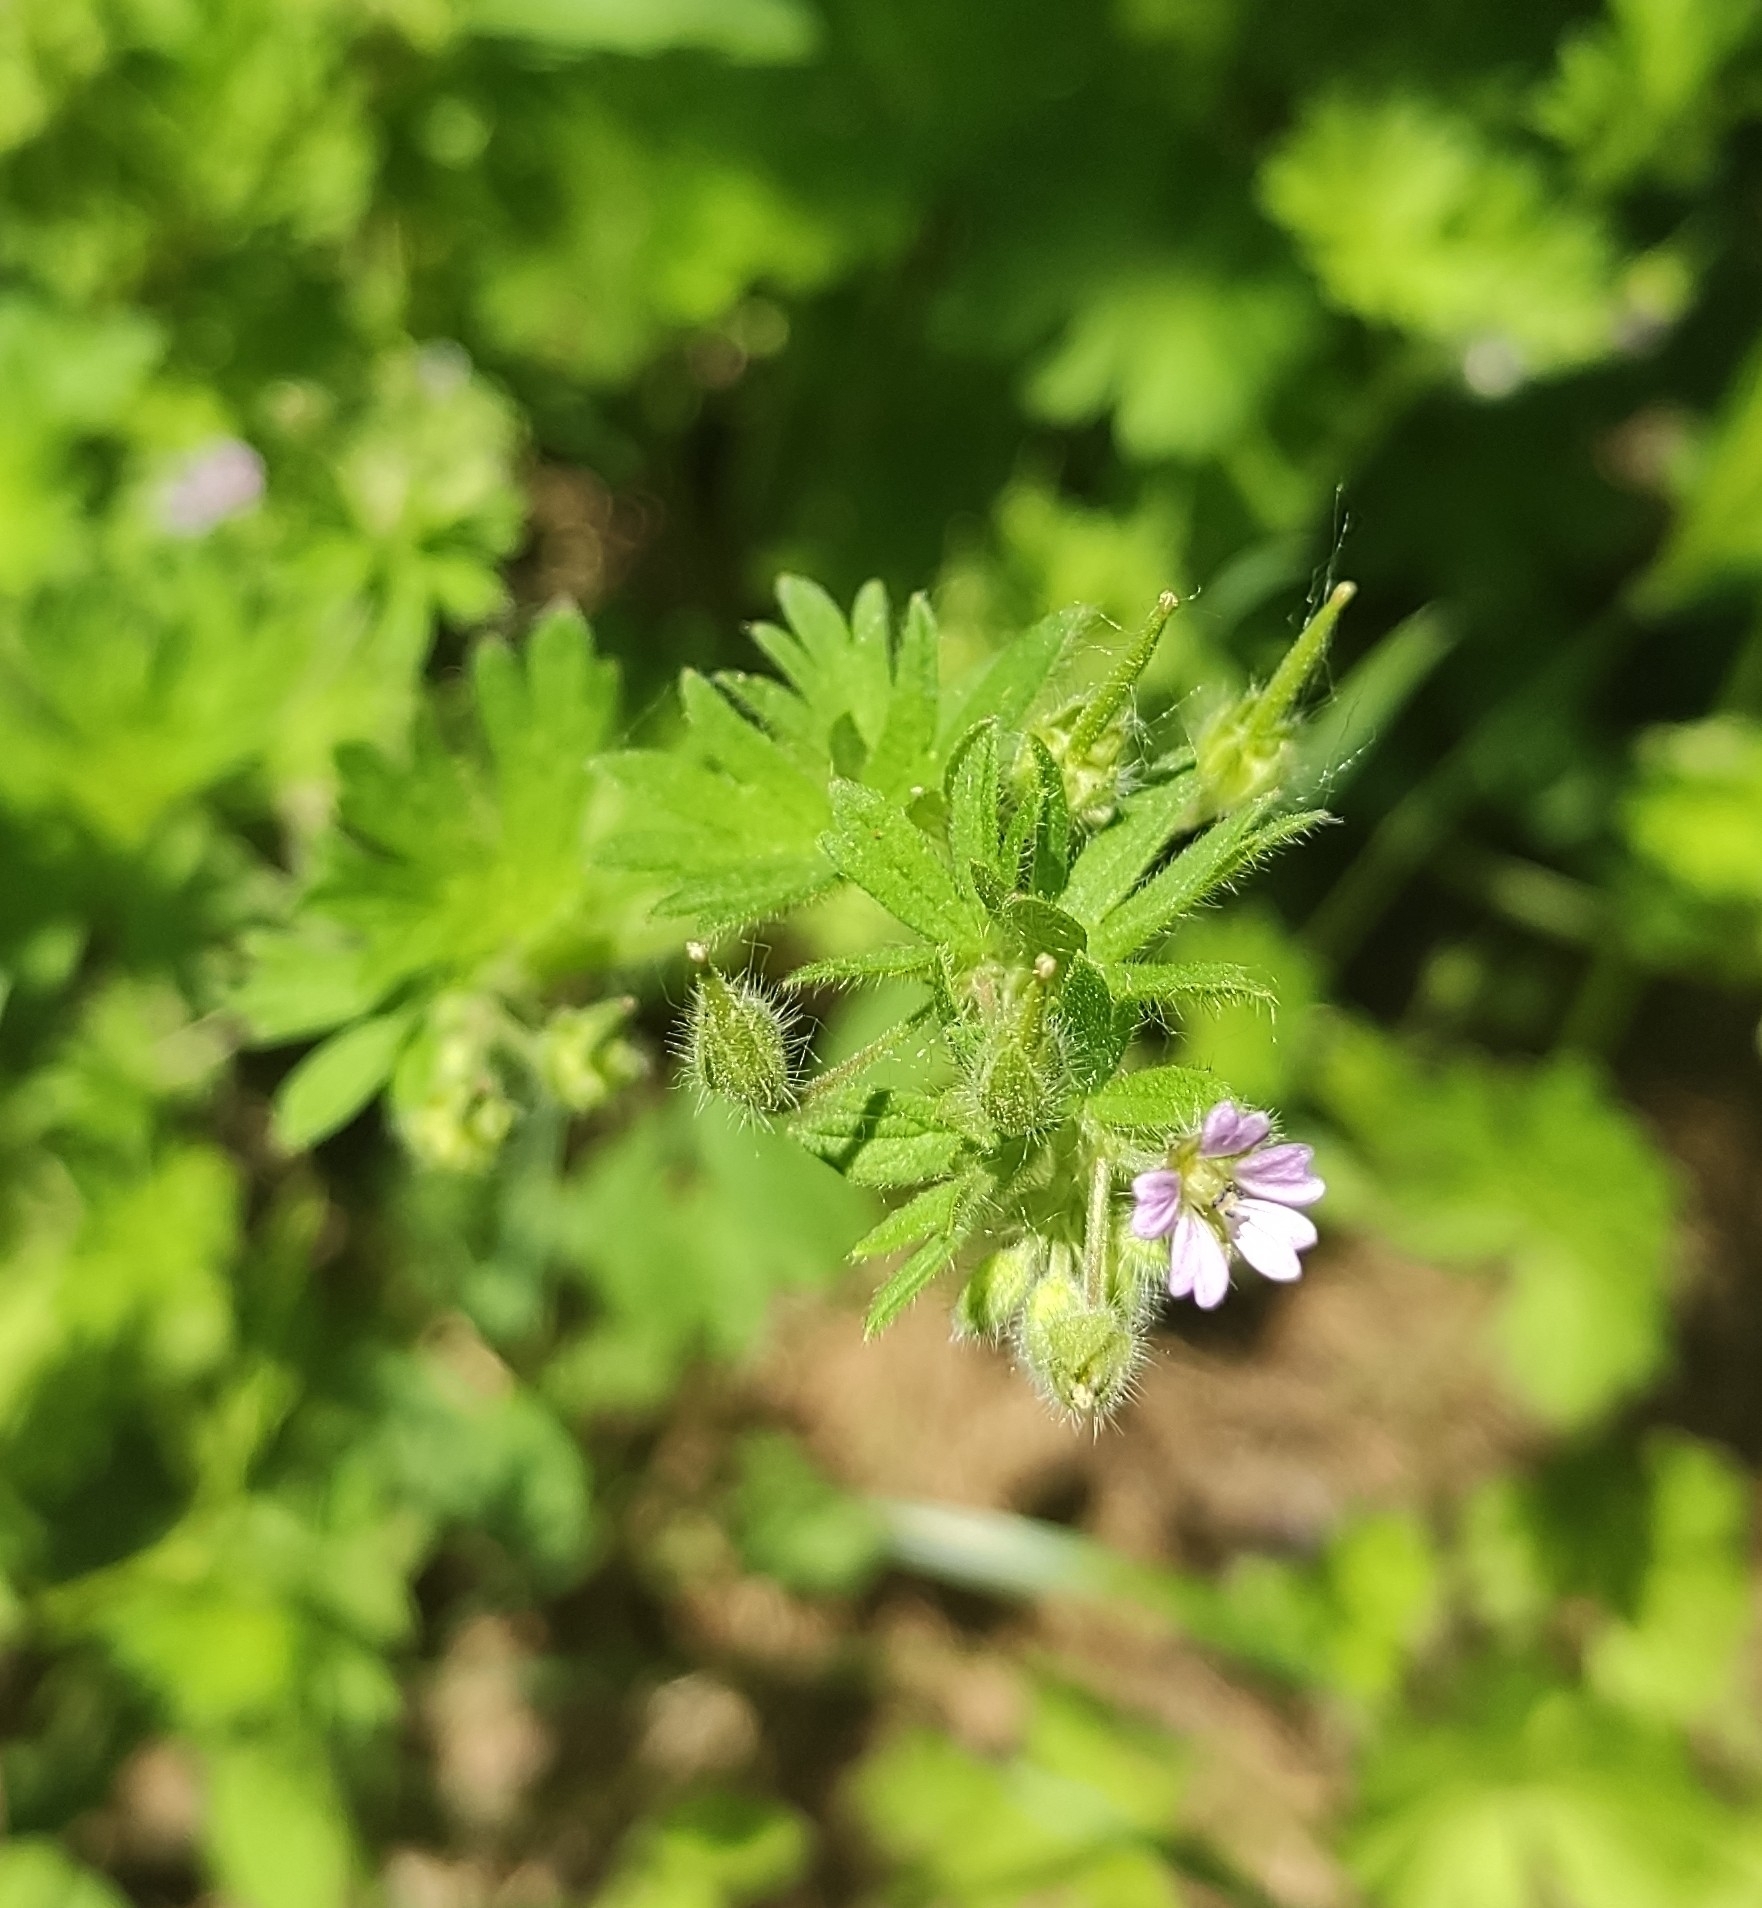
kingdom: Plantae
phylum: Tracheophyta
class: Magnoliopsida
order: Geraniales
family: Geraniaceae
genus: Geranium
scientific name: Geranium pusillum
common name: Small geranium
